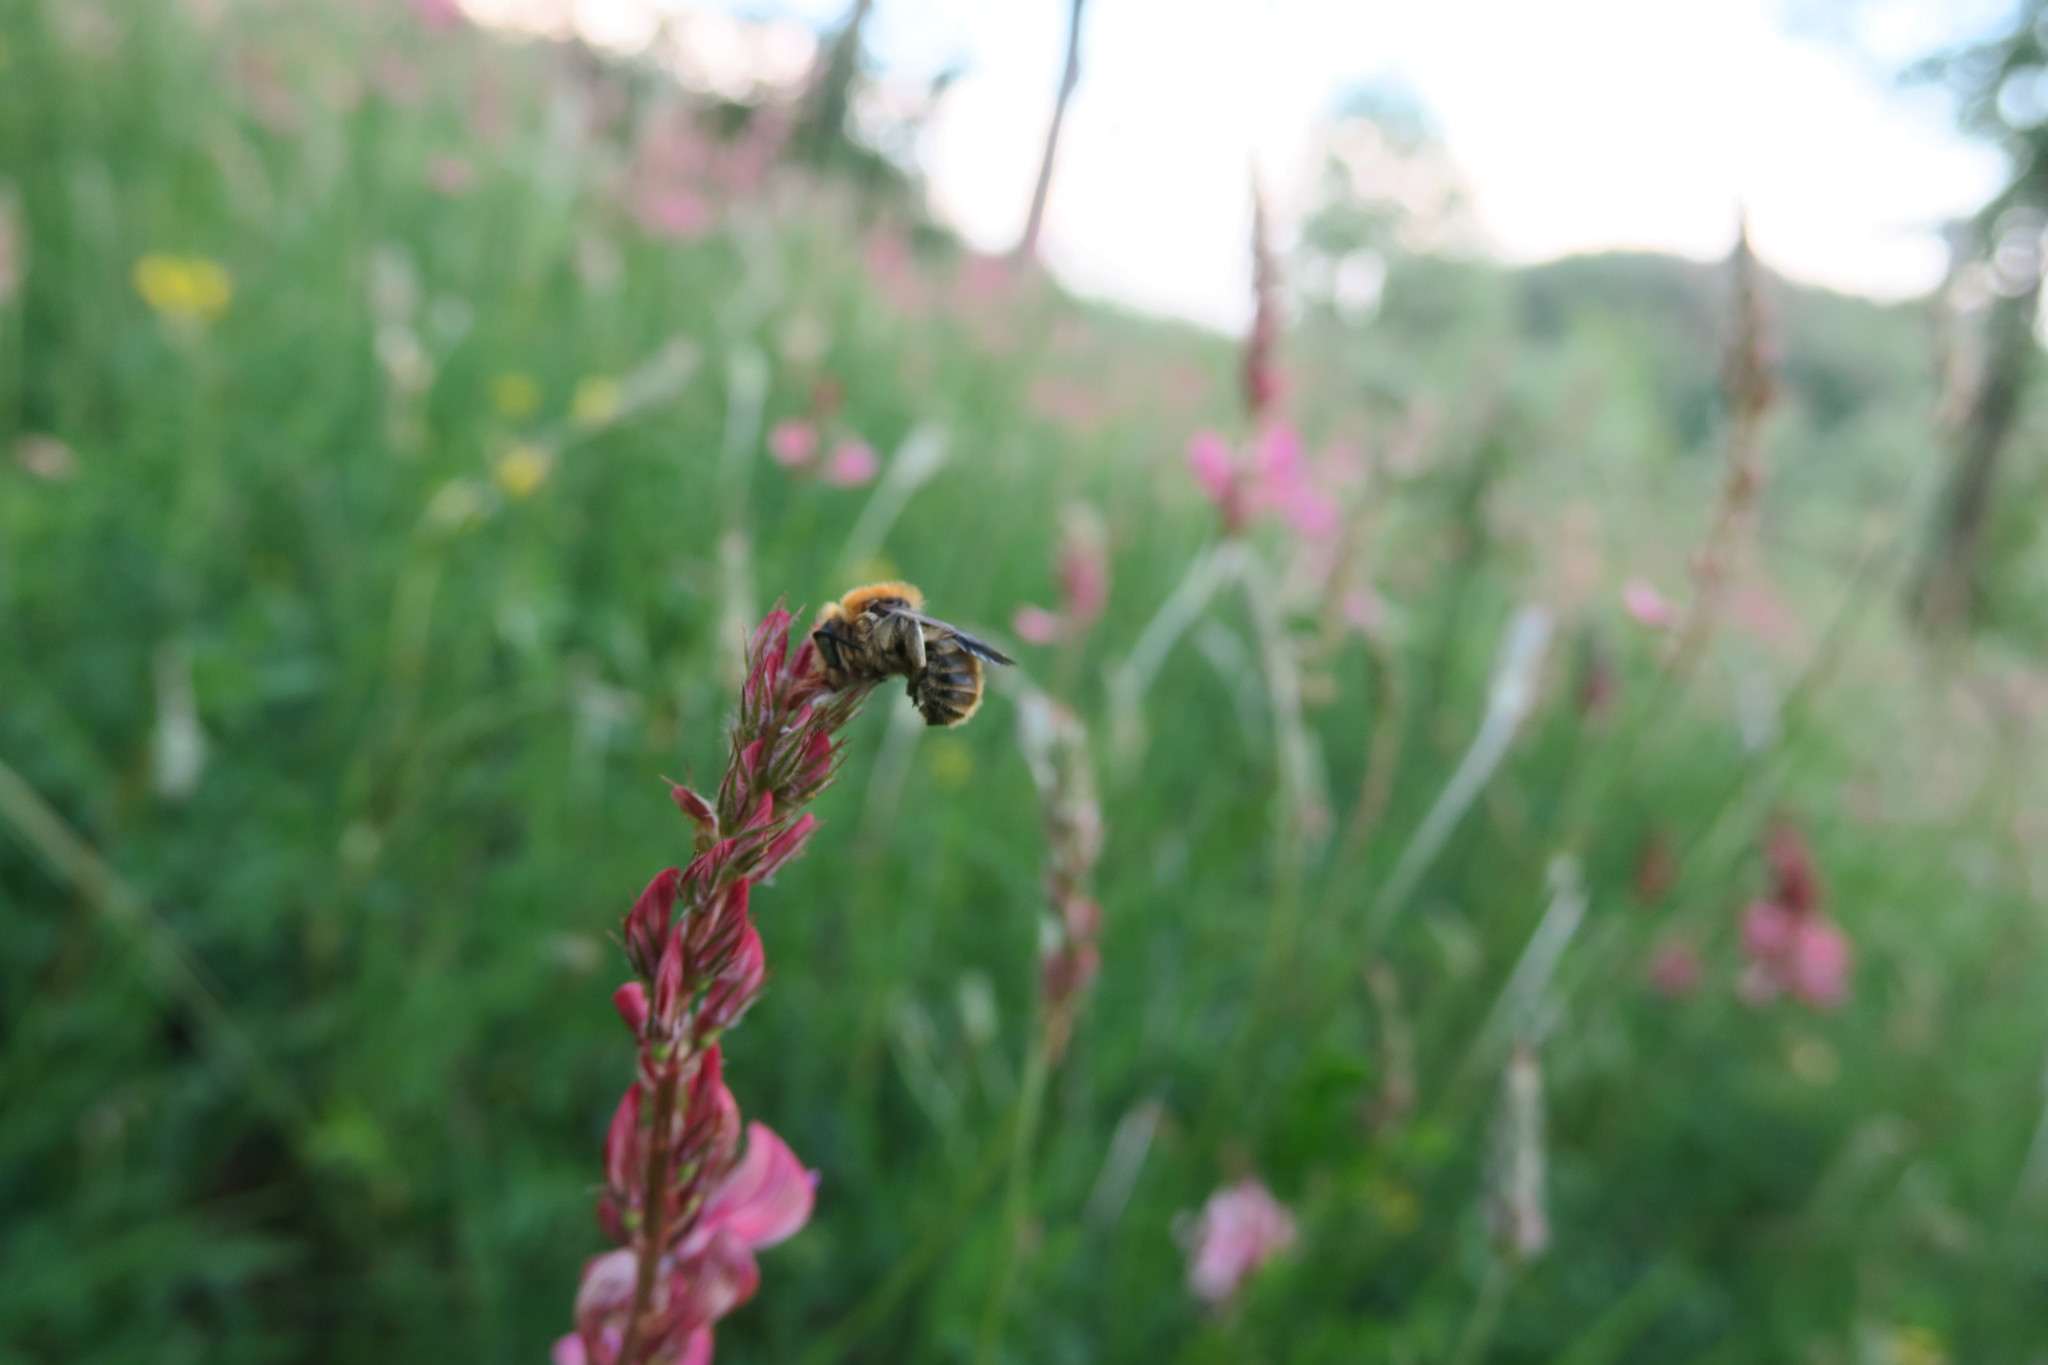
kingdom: Animalia
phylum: Arthropoda
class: Insecta
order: Hymenoptera
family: Megachilidae
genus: Trachusa
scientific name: Trachusa byssina
